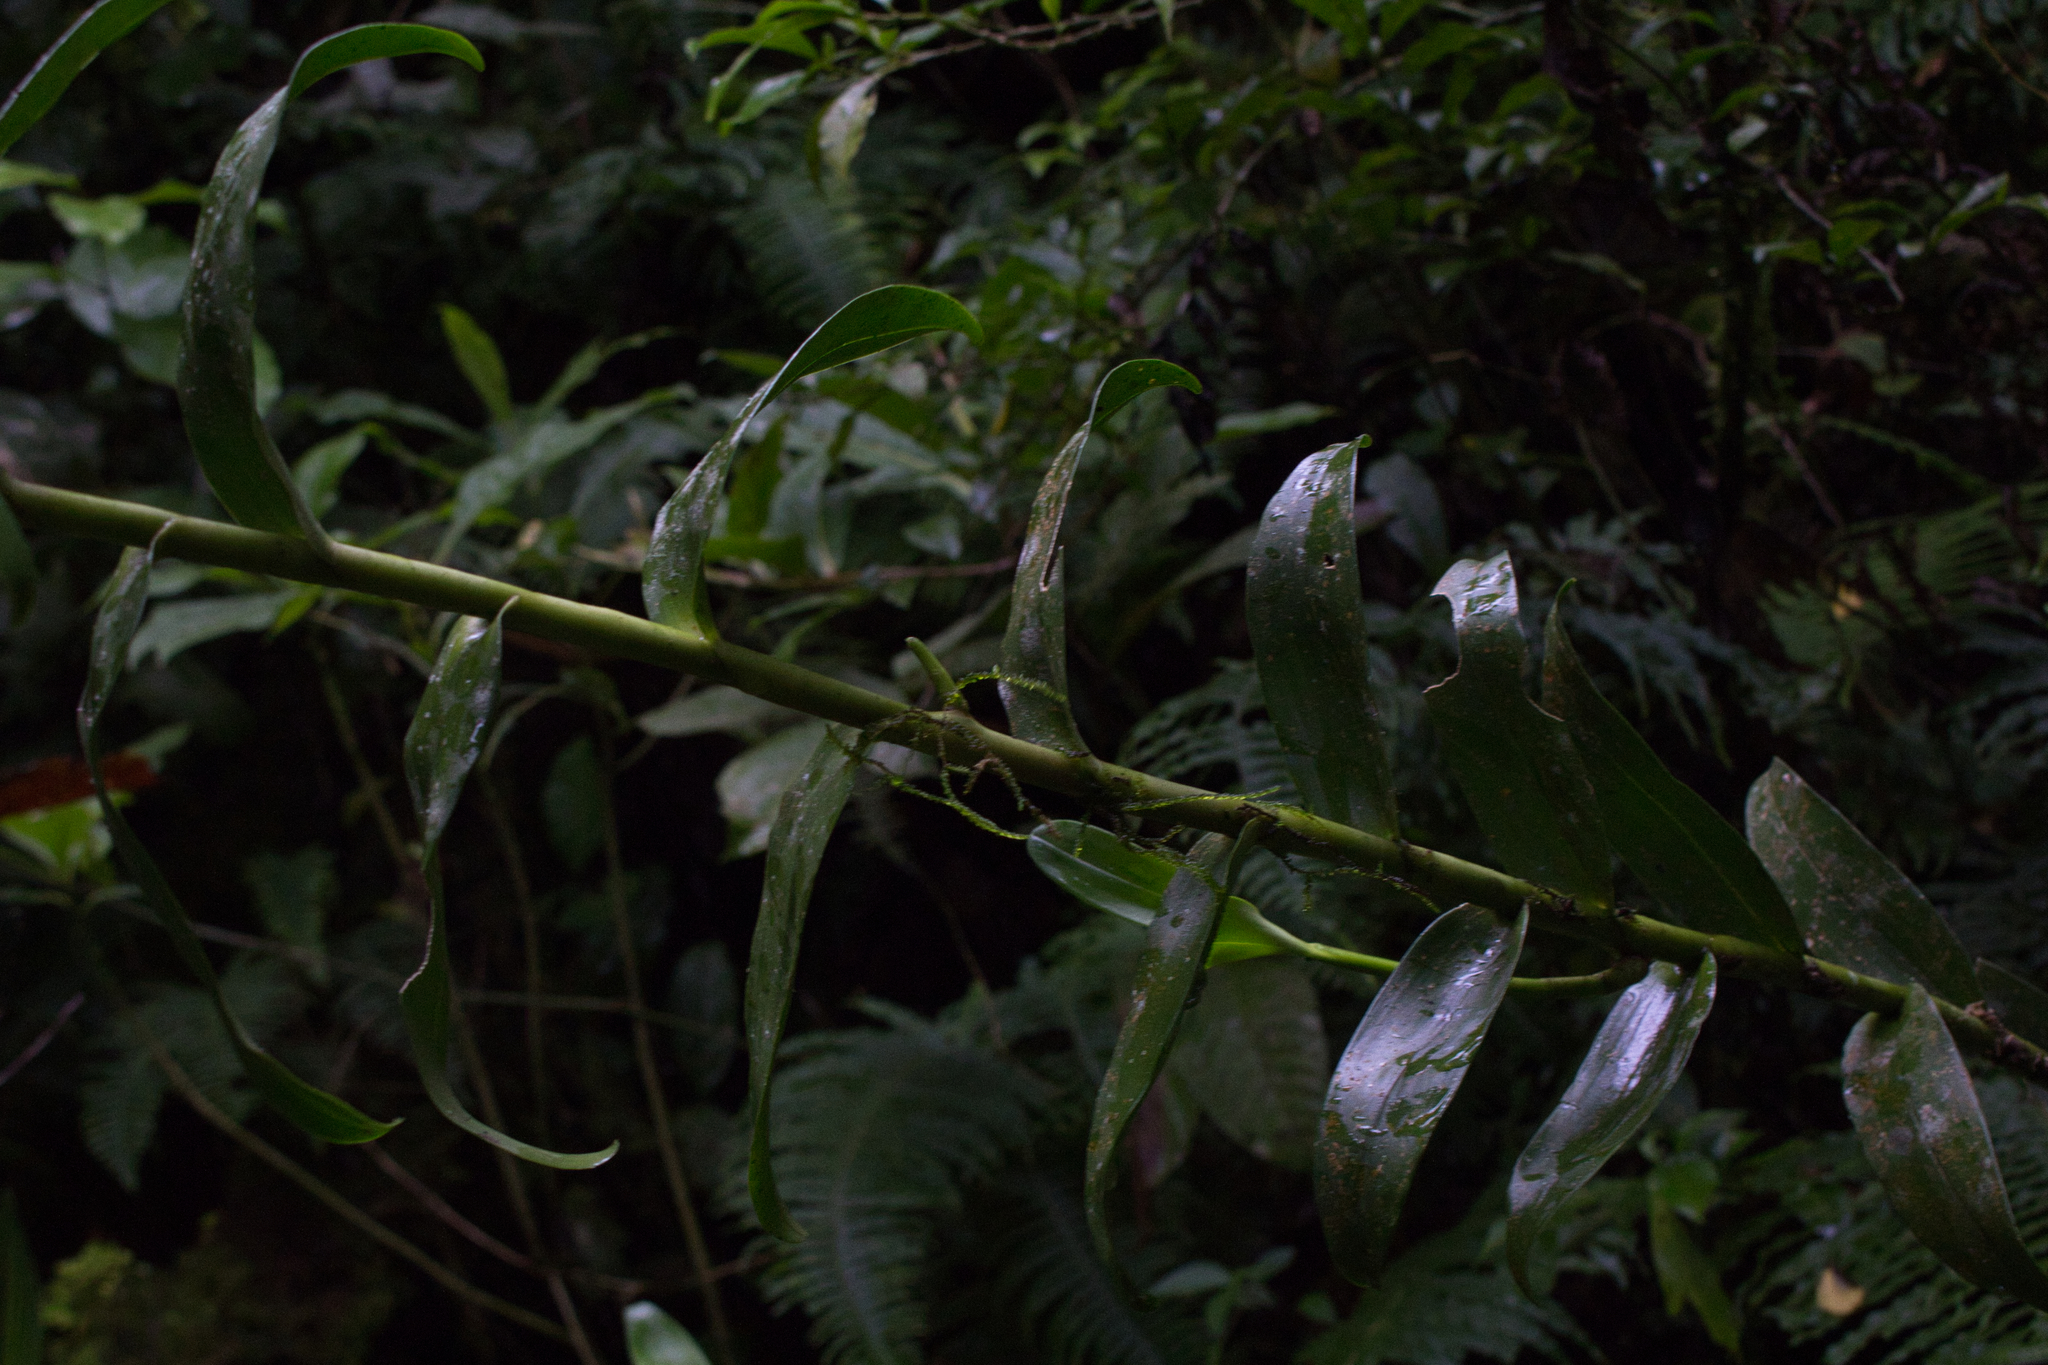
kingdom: Plantae
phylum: Tracheophyta
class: Liliopsida
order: Asparagales
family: Orchidaceae
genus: Epidendrum
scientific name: Epidendrum exasperatum
